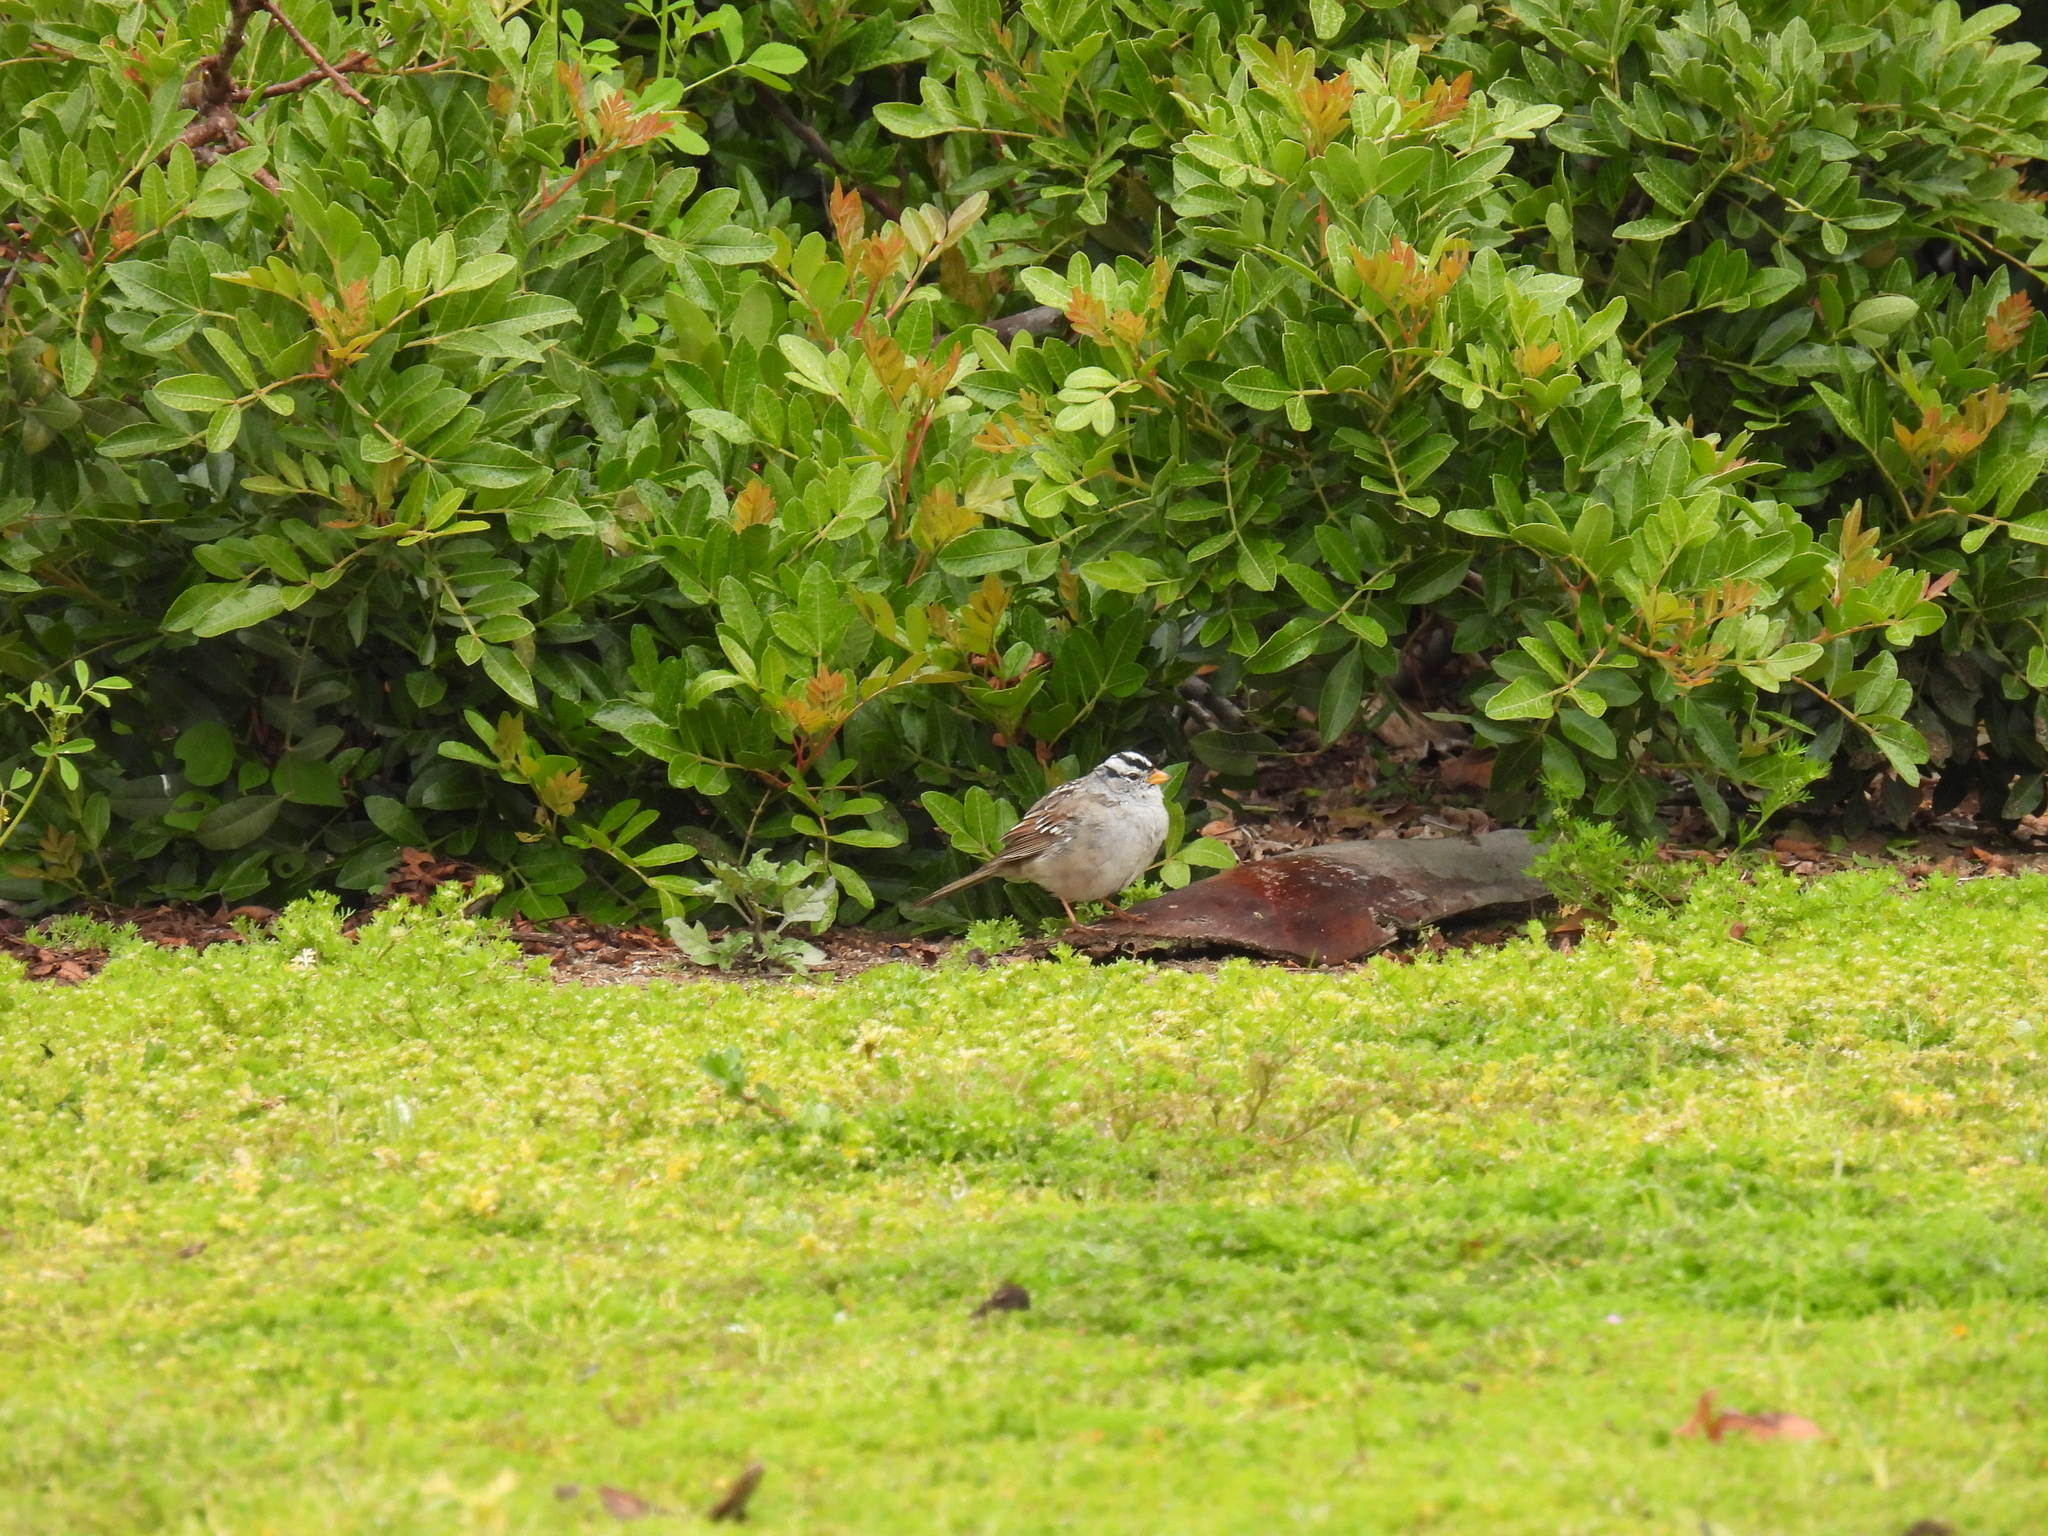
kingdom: Animalia
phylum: Chordata
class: Aves
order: Passeriformes
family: Passerellidae
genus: Zonotrichia
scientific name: Zonotrichia leucophrys
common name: White-crowned sparrow
